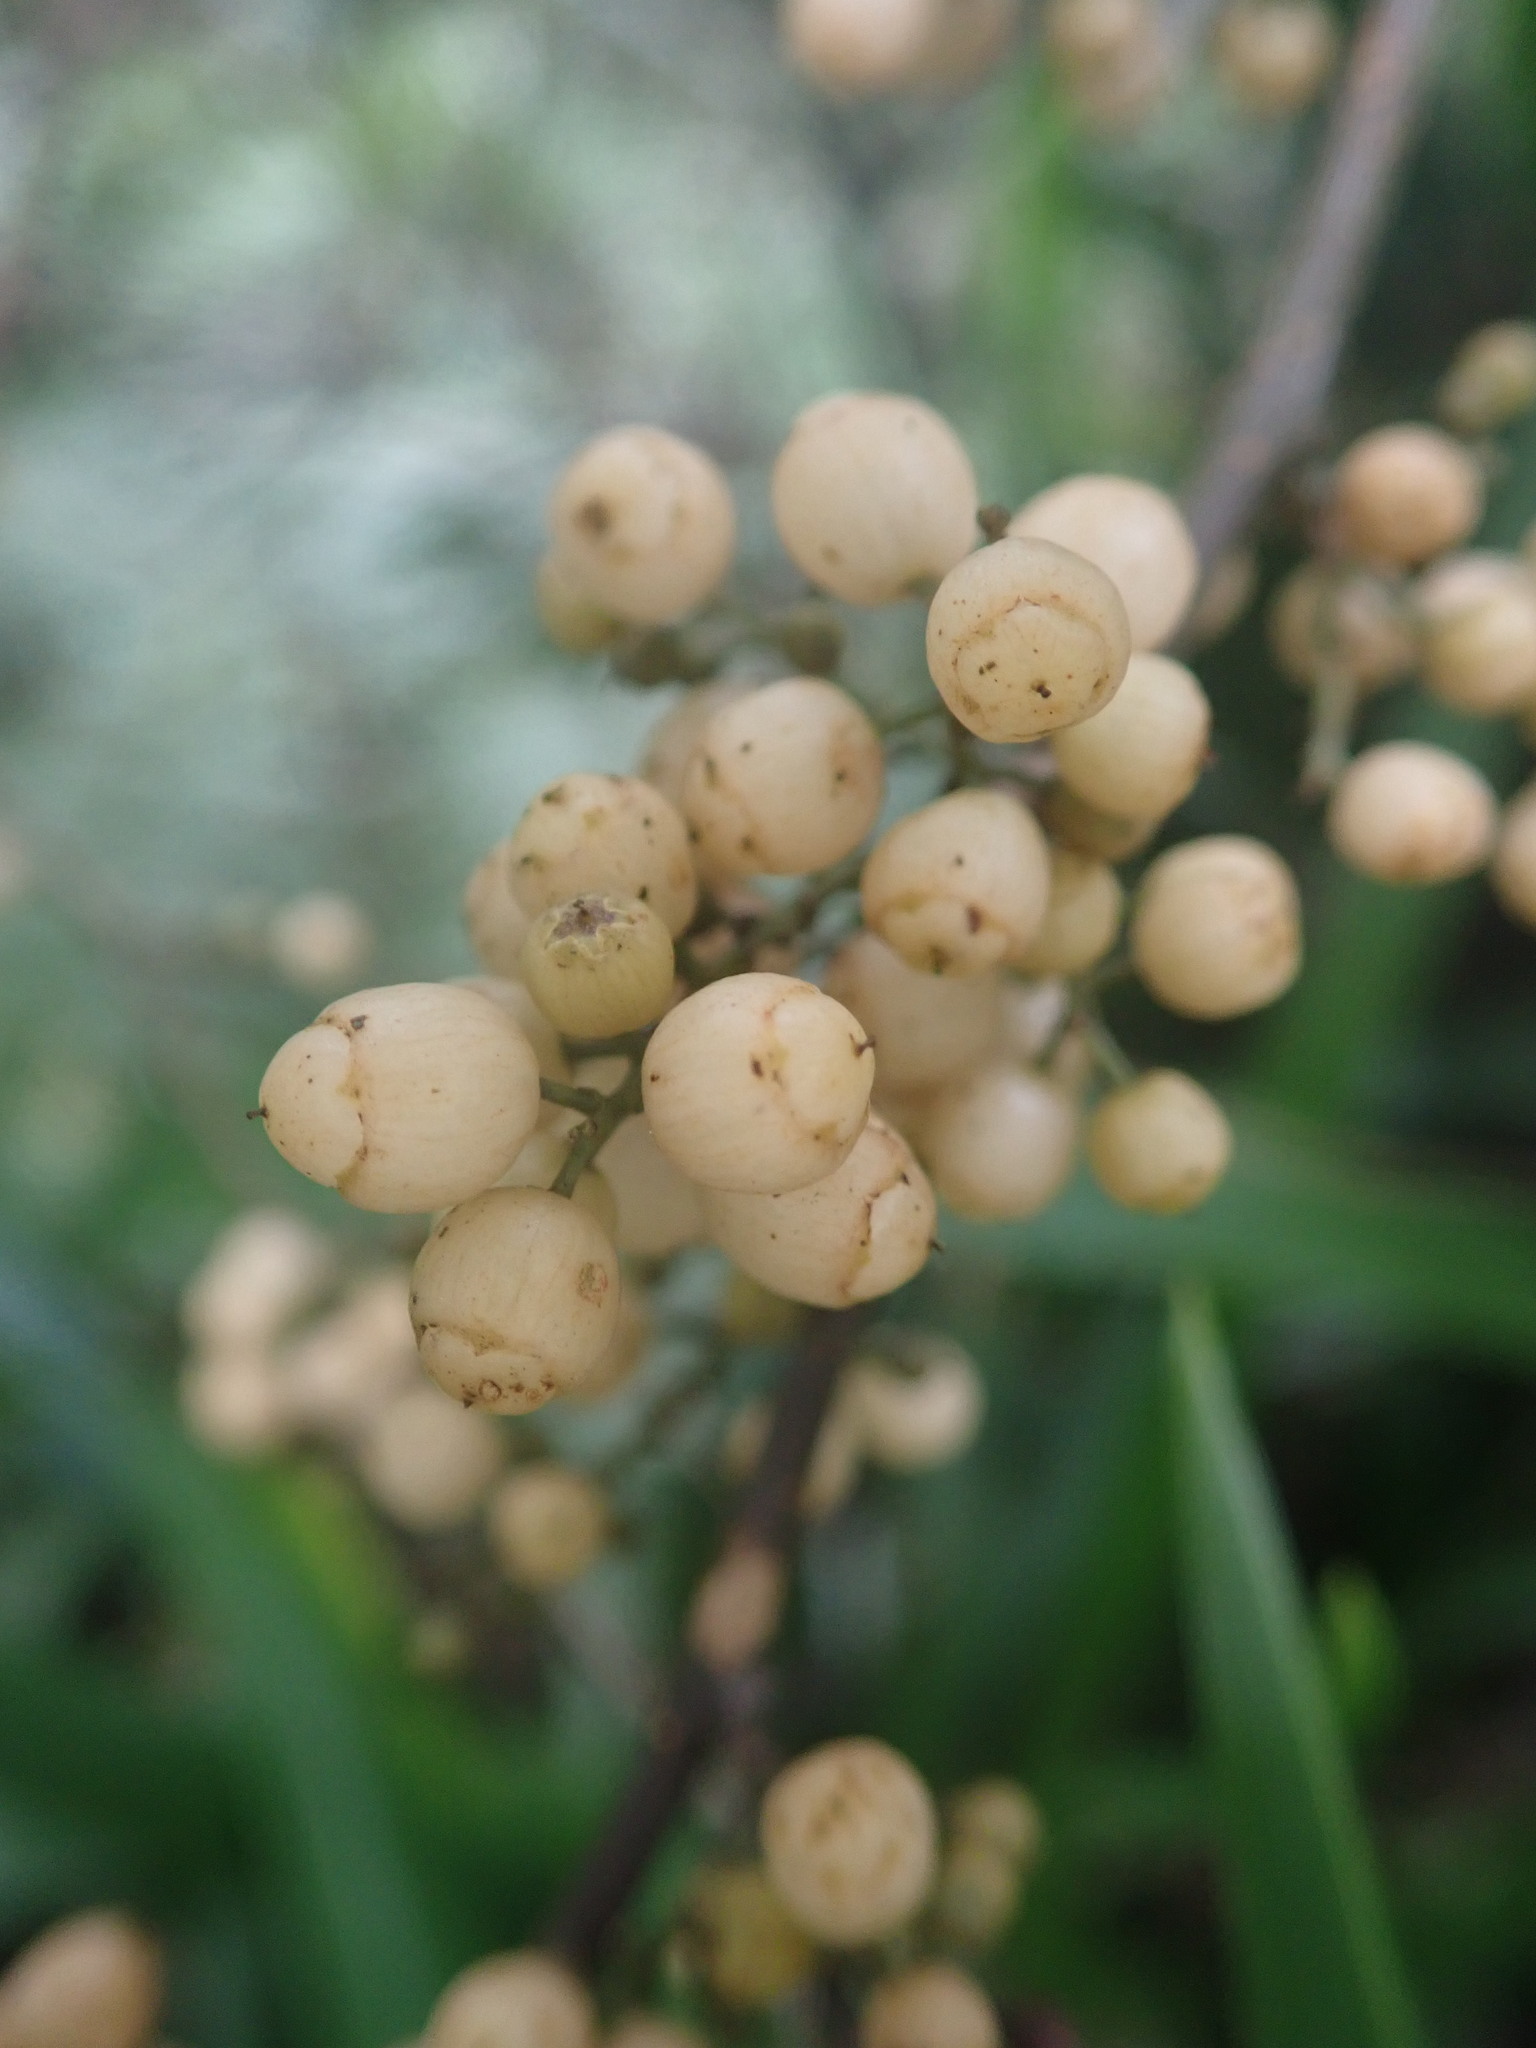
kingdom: Plantae
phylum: Tracheophyta
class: Magnoliopsida
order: Ericales
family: Primulaceae
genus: Maesa
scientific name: Maesa perlaria
